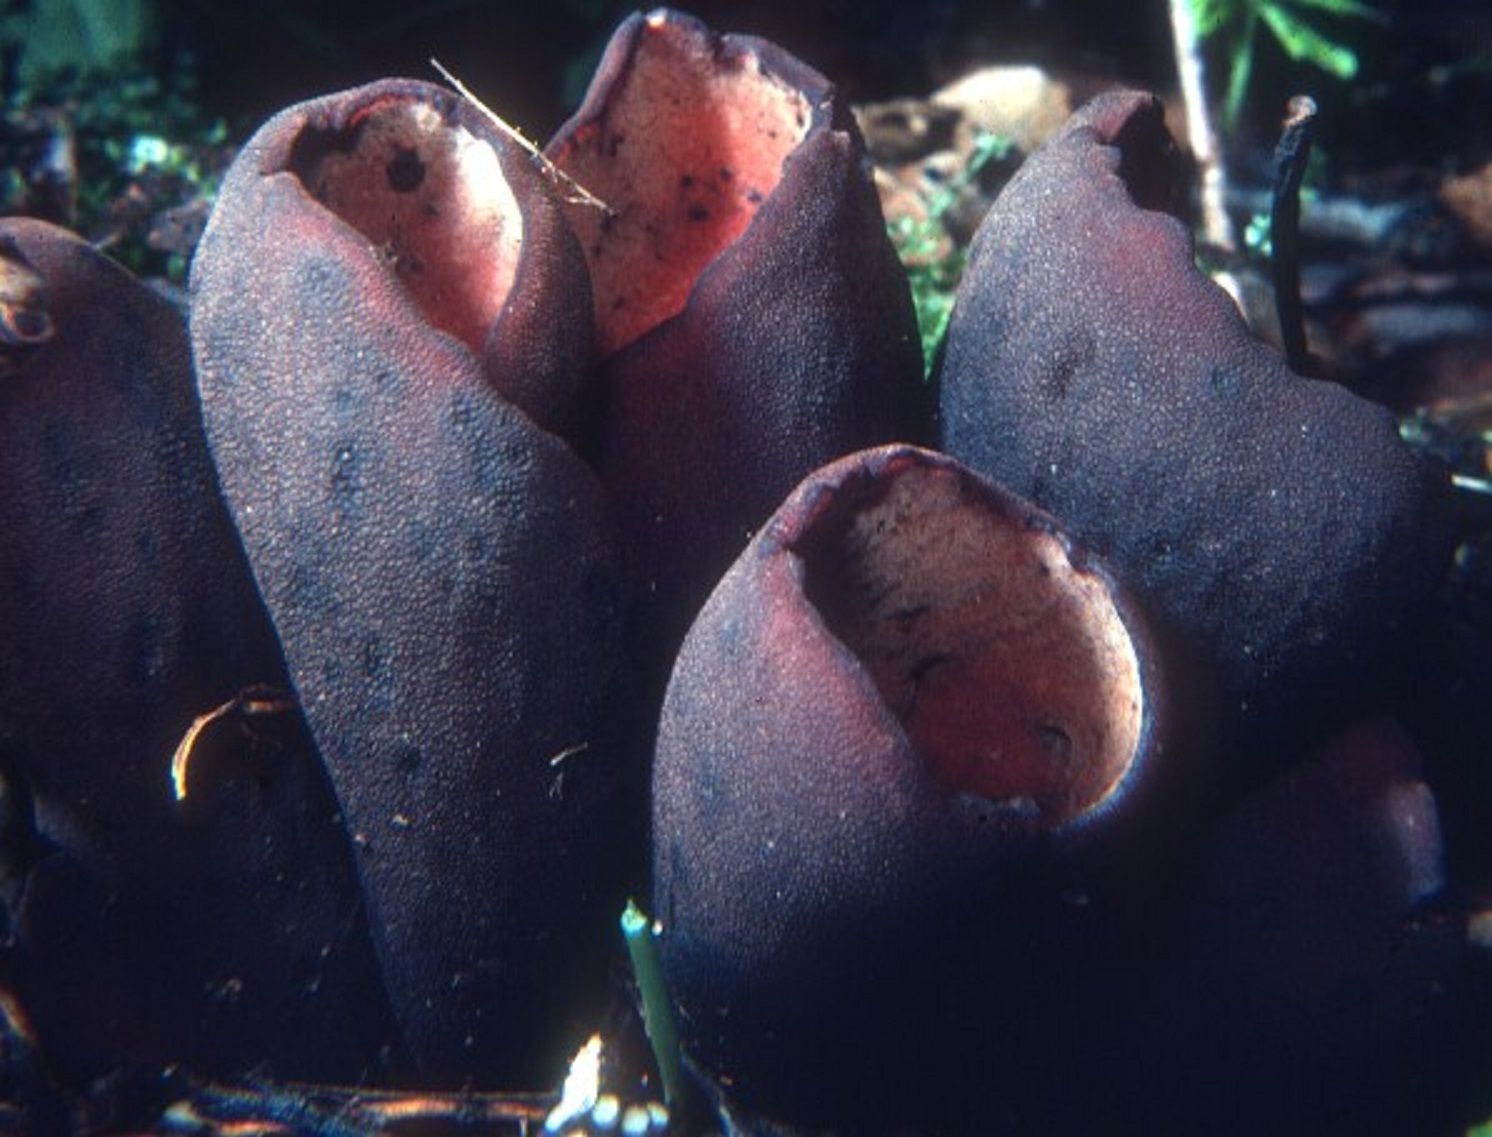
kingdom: Fungi
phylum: Ascomycota
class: Pezizomycetes
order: Pezizales
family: Wynneaceae
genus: Wynnea
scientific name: Wynnea americana
